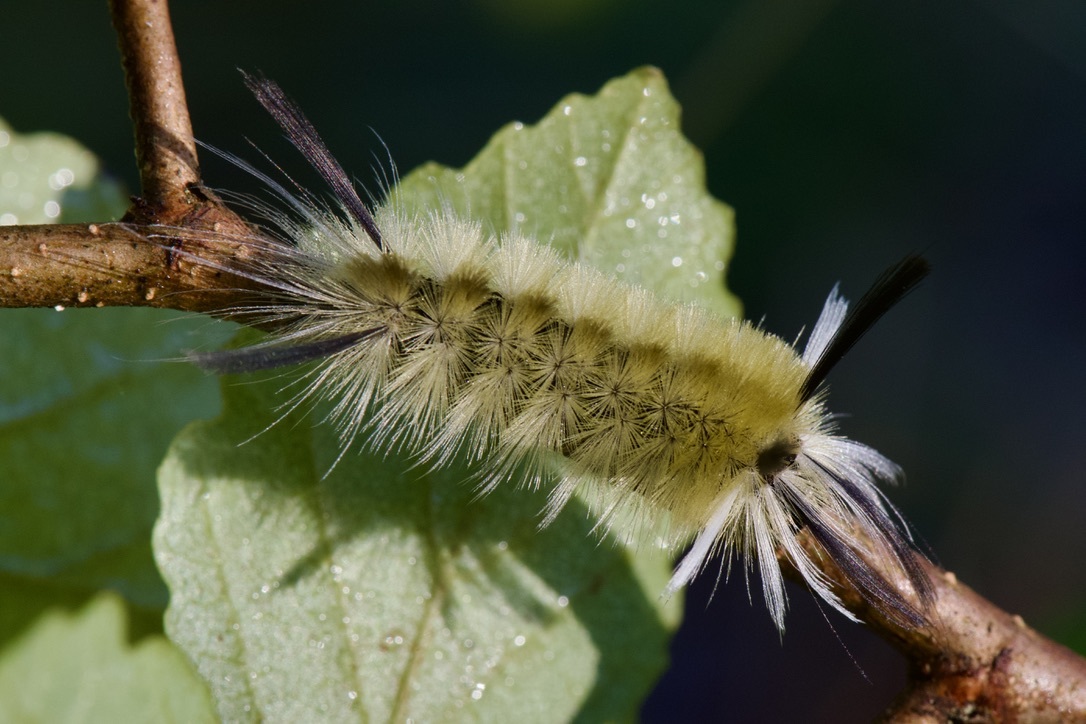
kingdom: Animalia
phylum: Arthropoda
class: Insecta
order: Lepidoptera
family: Erebidae
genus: Halysidota
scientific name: Halysidota tessellaris
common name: Banded tussock moth
